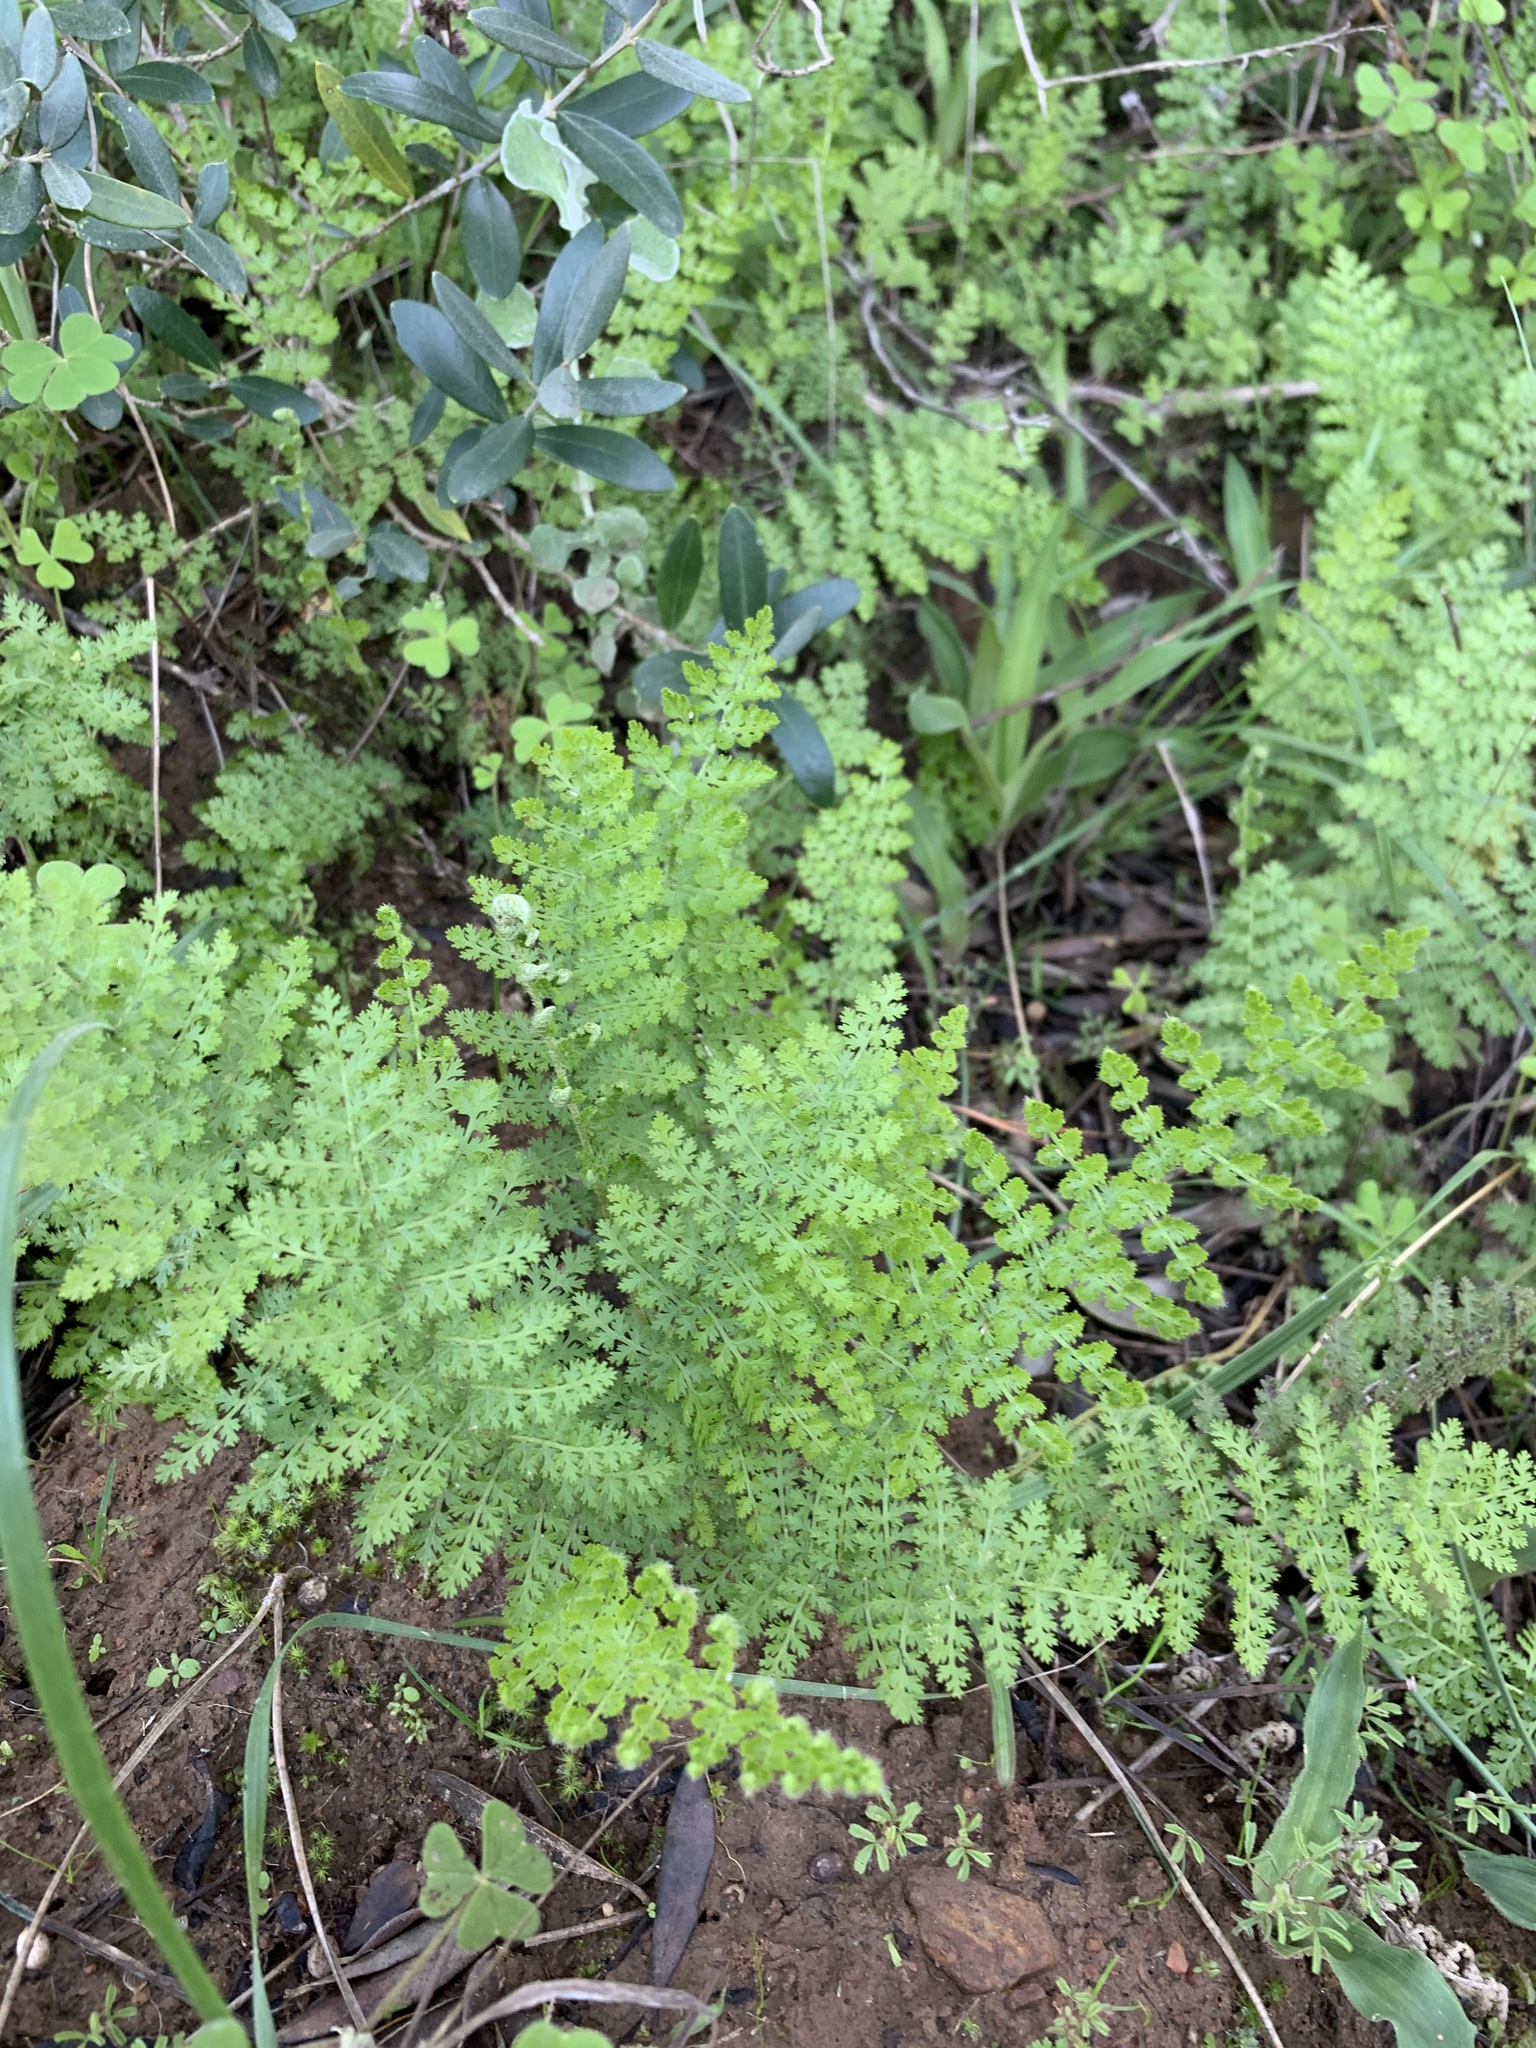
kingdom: Plantae
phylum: Tracheophyta
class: Polypodiopsida
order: Schizaeales
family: Anemiaceae
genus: Anemia
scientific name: Anemia caffrorum
